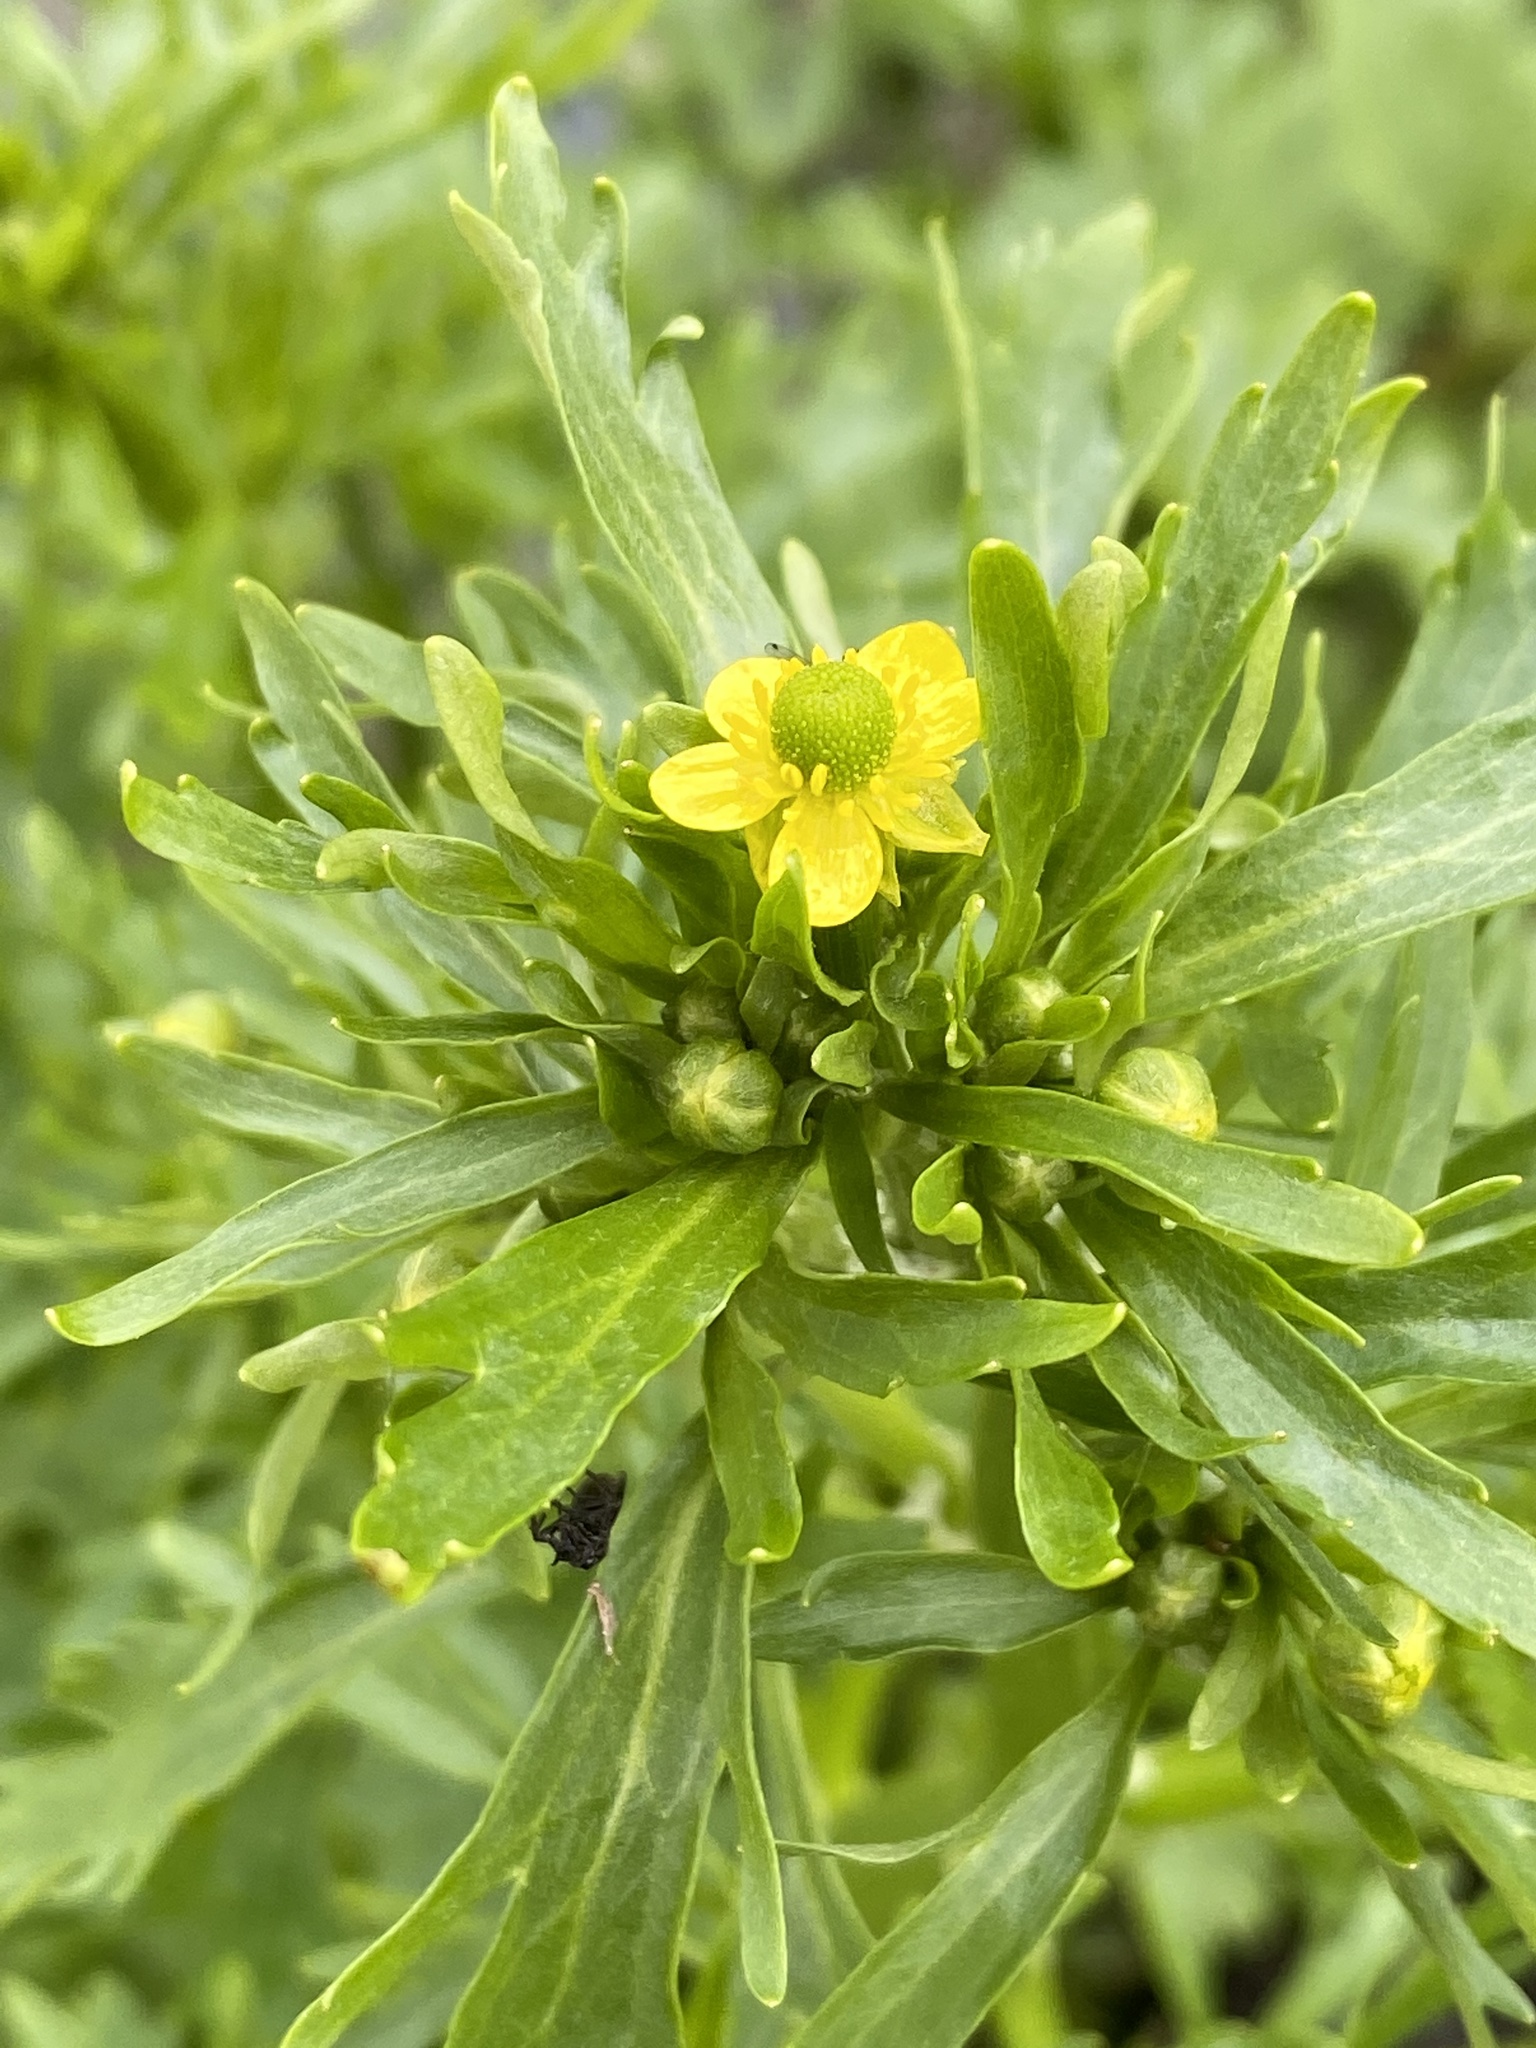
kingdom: Plantae
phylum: Tracheophyta
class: Magnoliopsida
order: Ranunculales
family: Ranunculaceae
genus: Ranunculus
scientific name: Ranunculus sceleratus
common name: Celery-leaved buttercup
